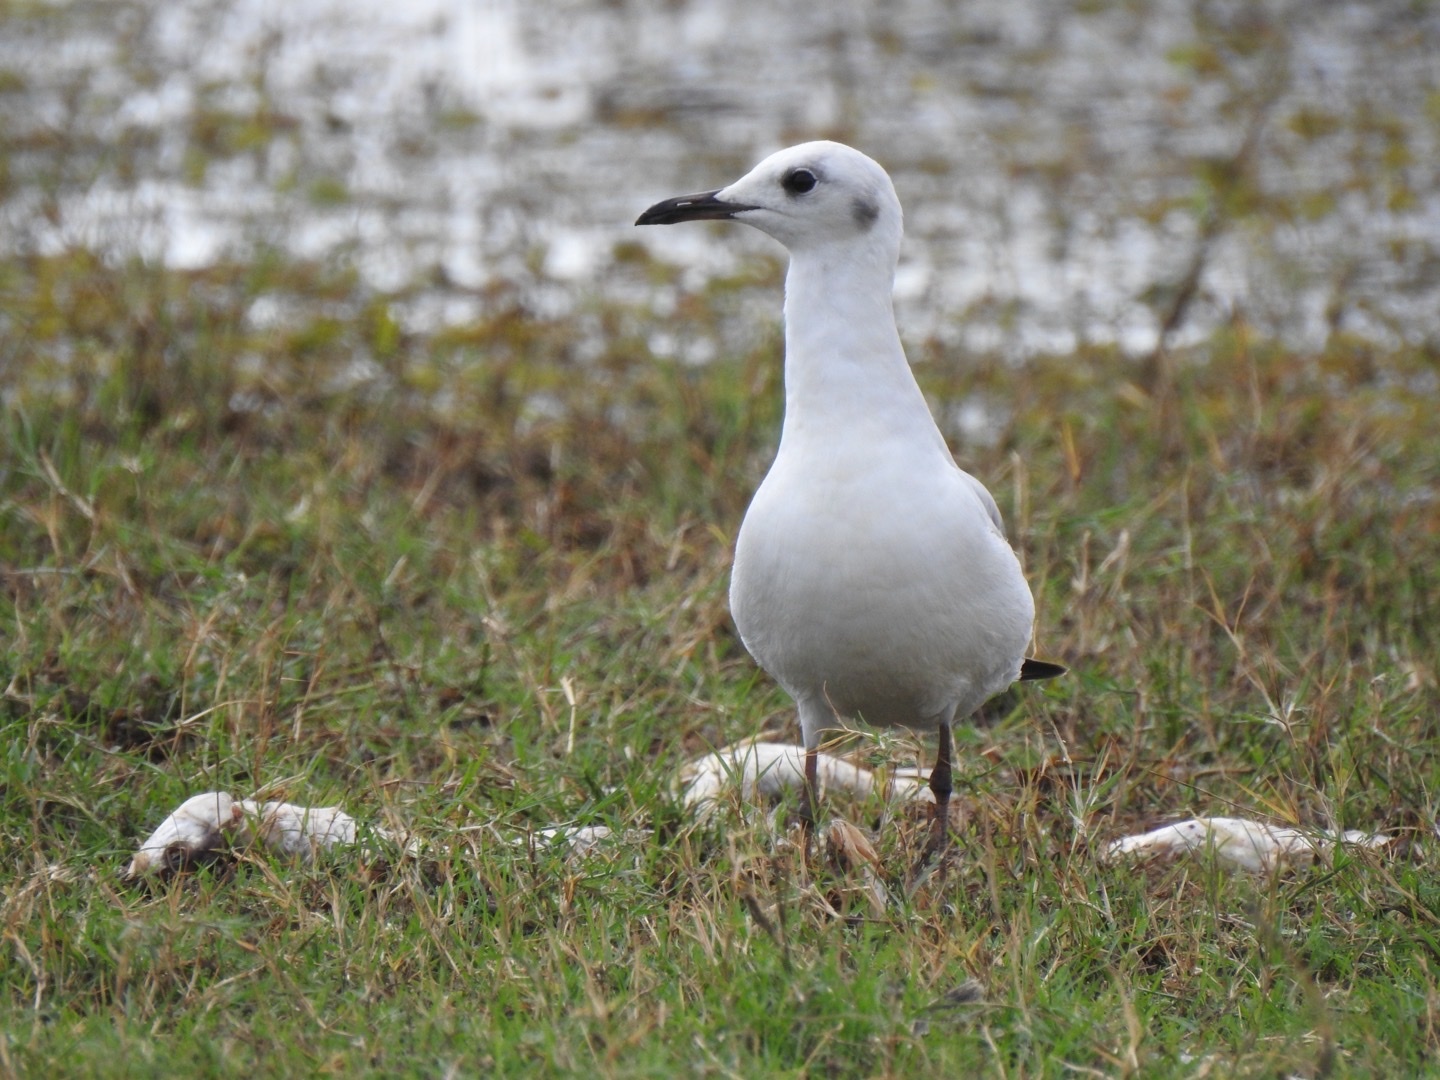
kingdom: Animalia
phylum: Chordata
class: Aves
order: Charadriiformes
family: Laridae
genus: Chroicocephalus
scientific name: Chroicocephalus cirrocephalus
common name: Grey-headed gull
